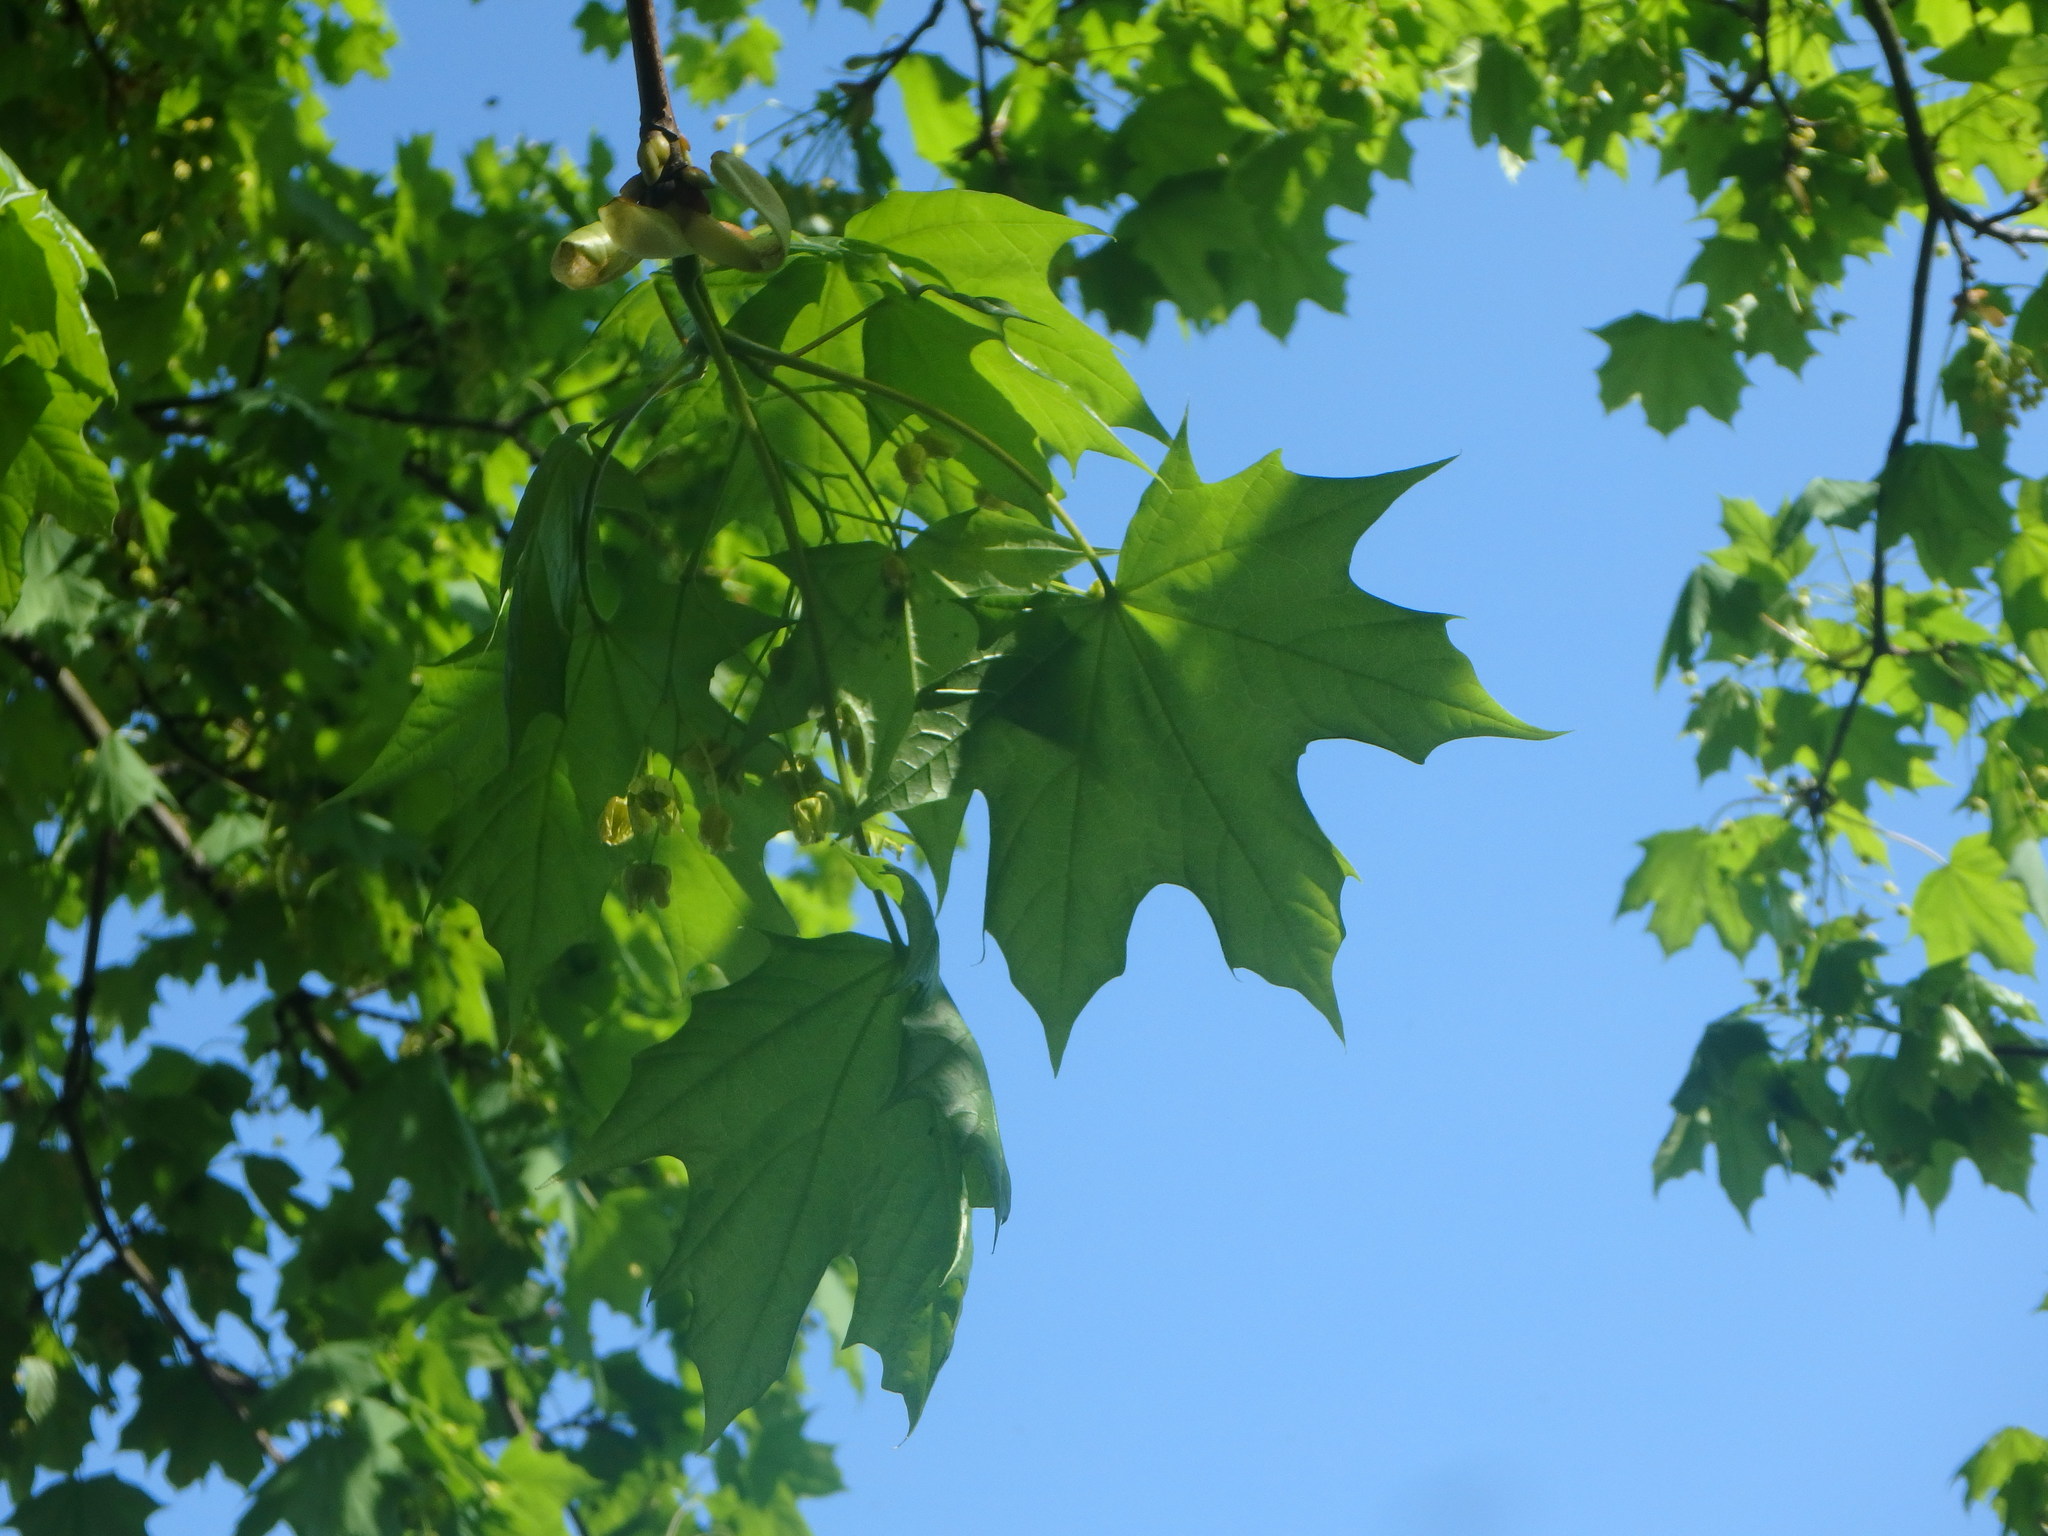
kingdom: Plantae
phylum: Tracheophyta
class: Magnoliopsida
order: Sapindales
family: Sapindaceae
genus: Acer
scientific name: Acer platanoides
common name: Norway maple
